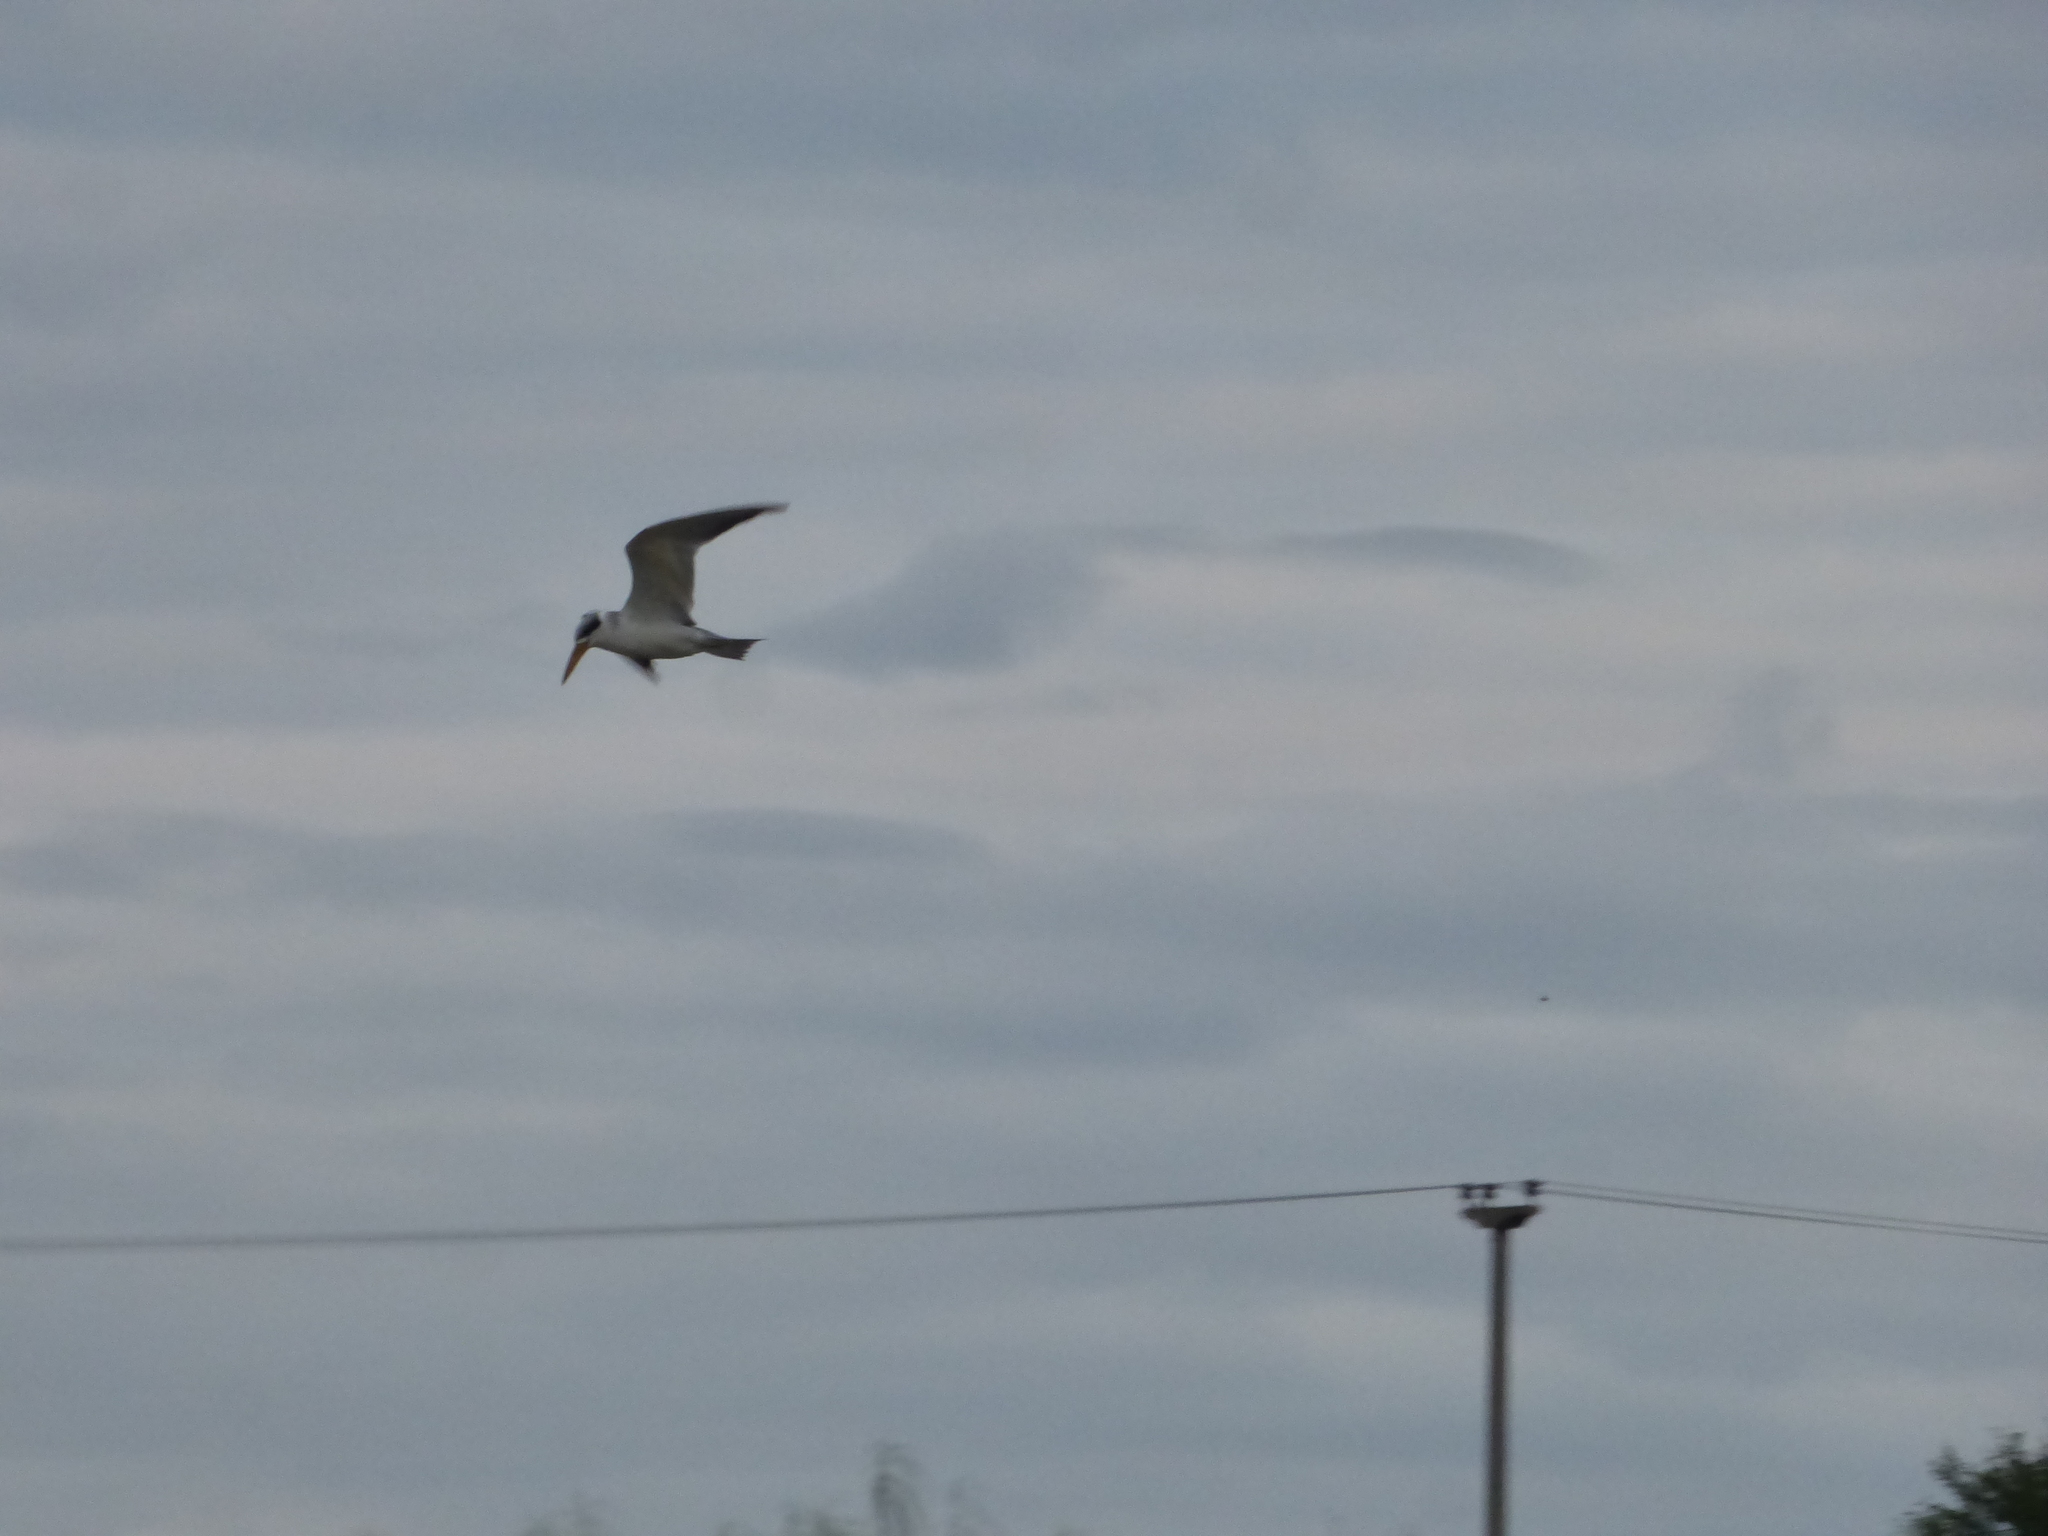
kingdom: Animalia
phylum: Chordata
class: Aves
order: Charadriiformes
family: Laridae
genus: Phaetusa
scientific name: Phaetusa simplex
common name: Large-billed tern
